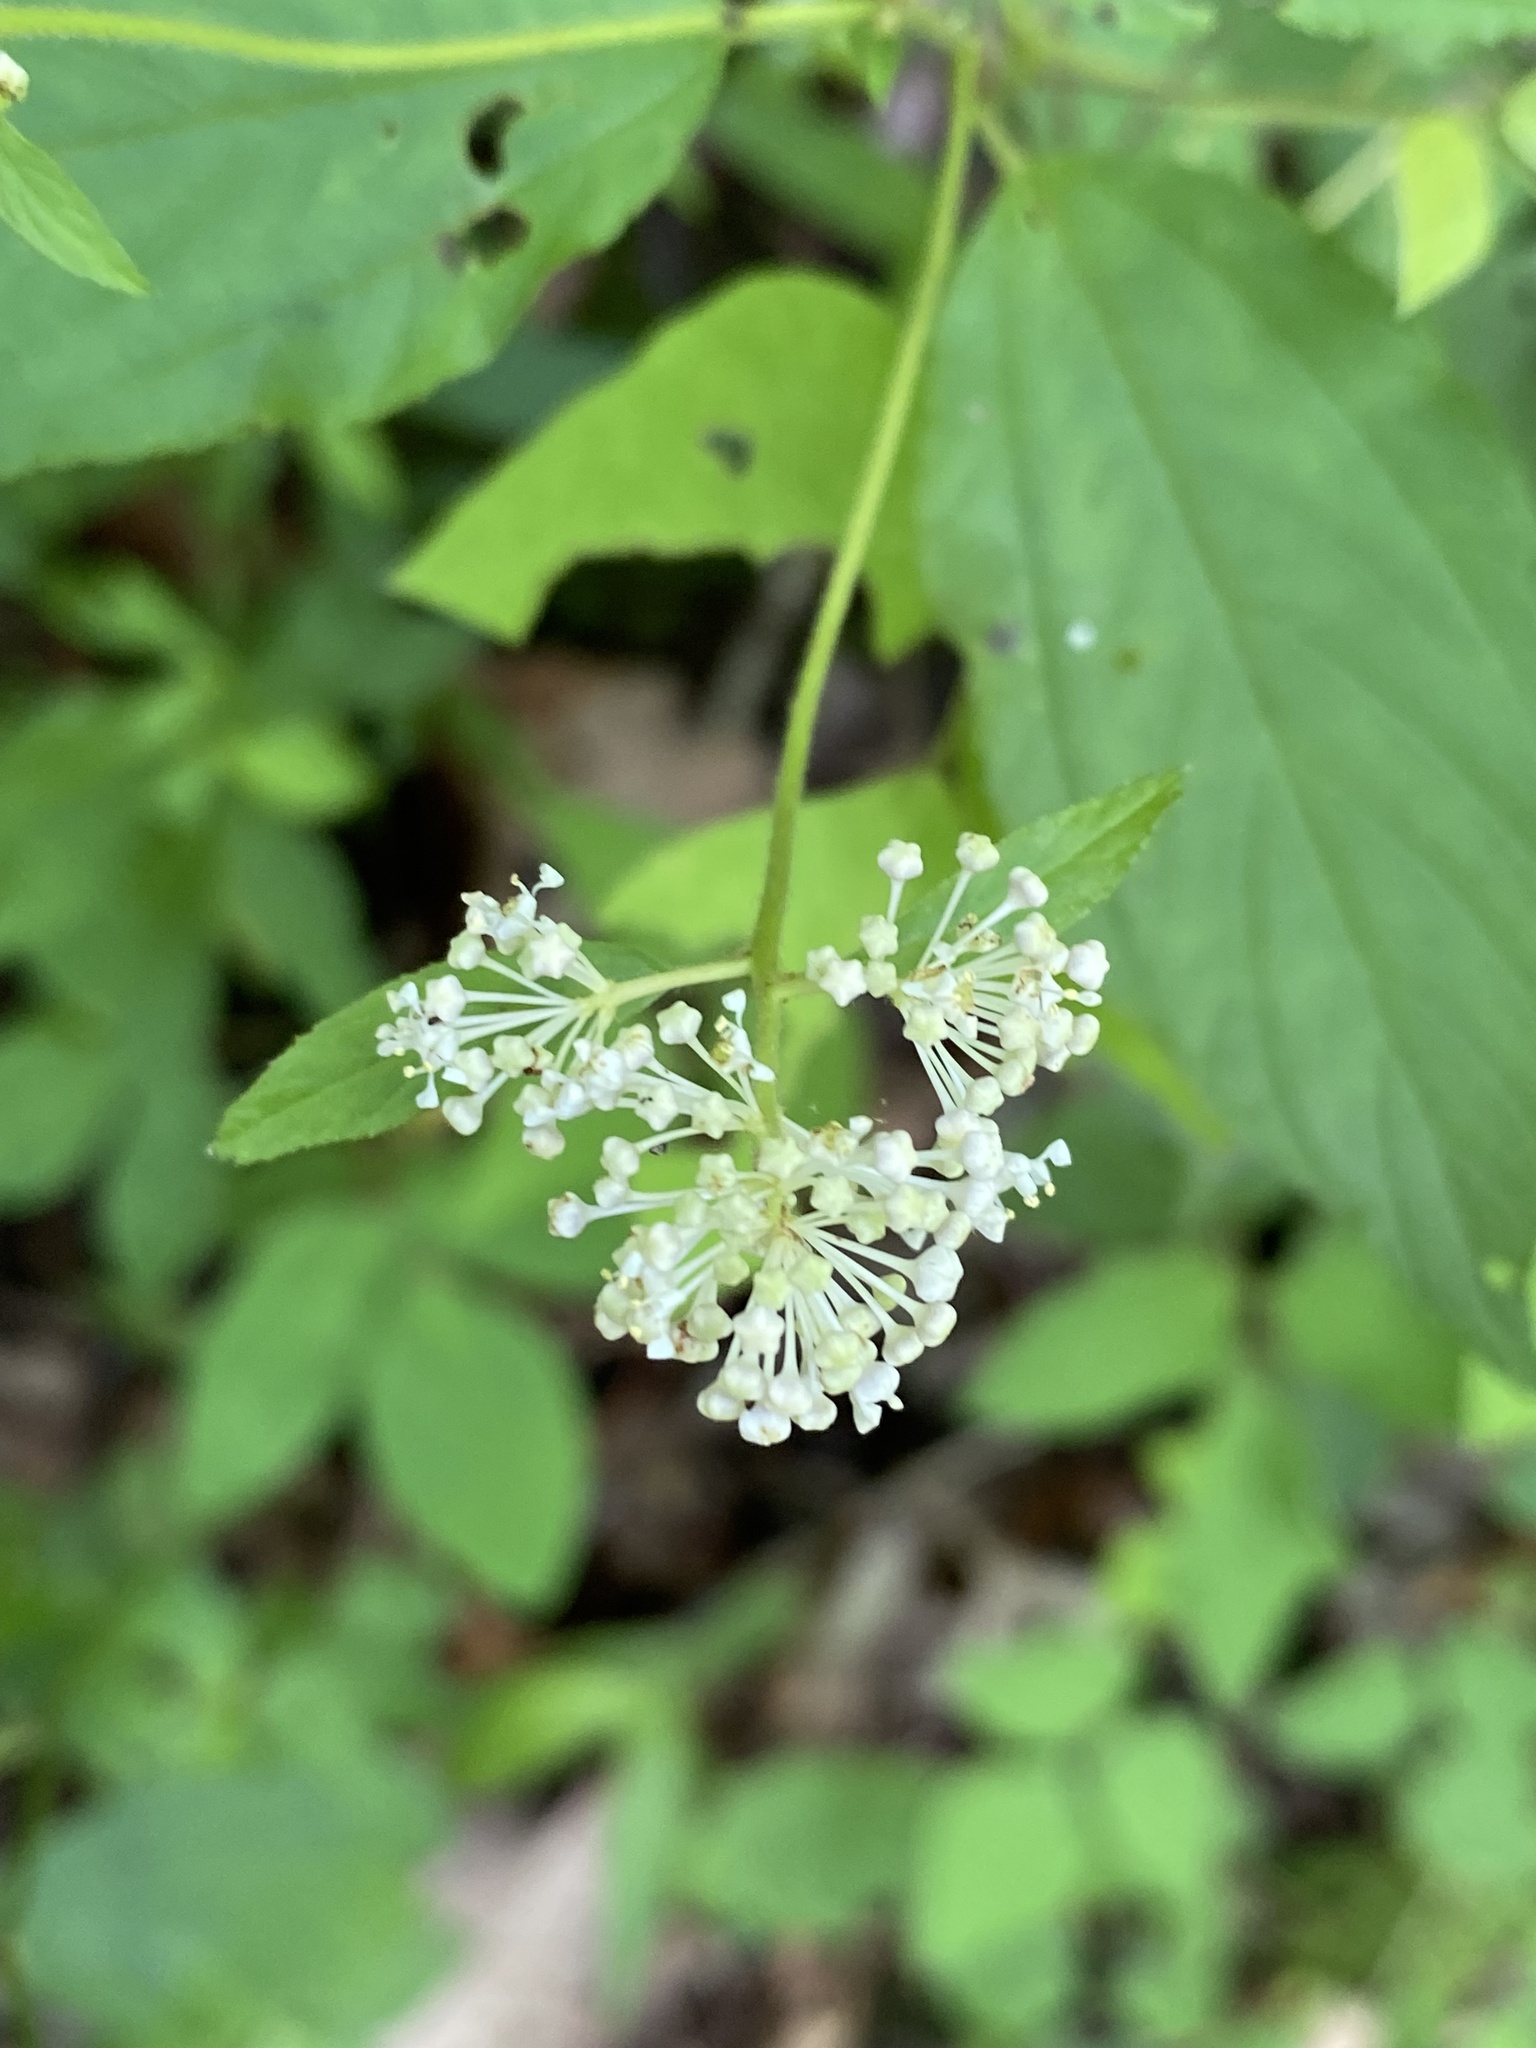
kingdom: Plantae
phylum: Tracheophyta
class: Magnoliopsida
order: Rosales
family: Rhamnaceae
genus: Ceanothus
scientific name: Ceanothus americanus
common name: Redroot
